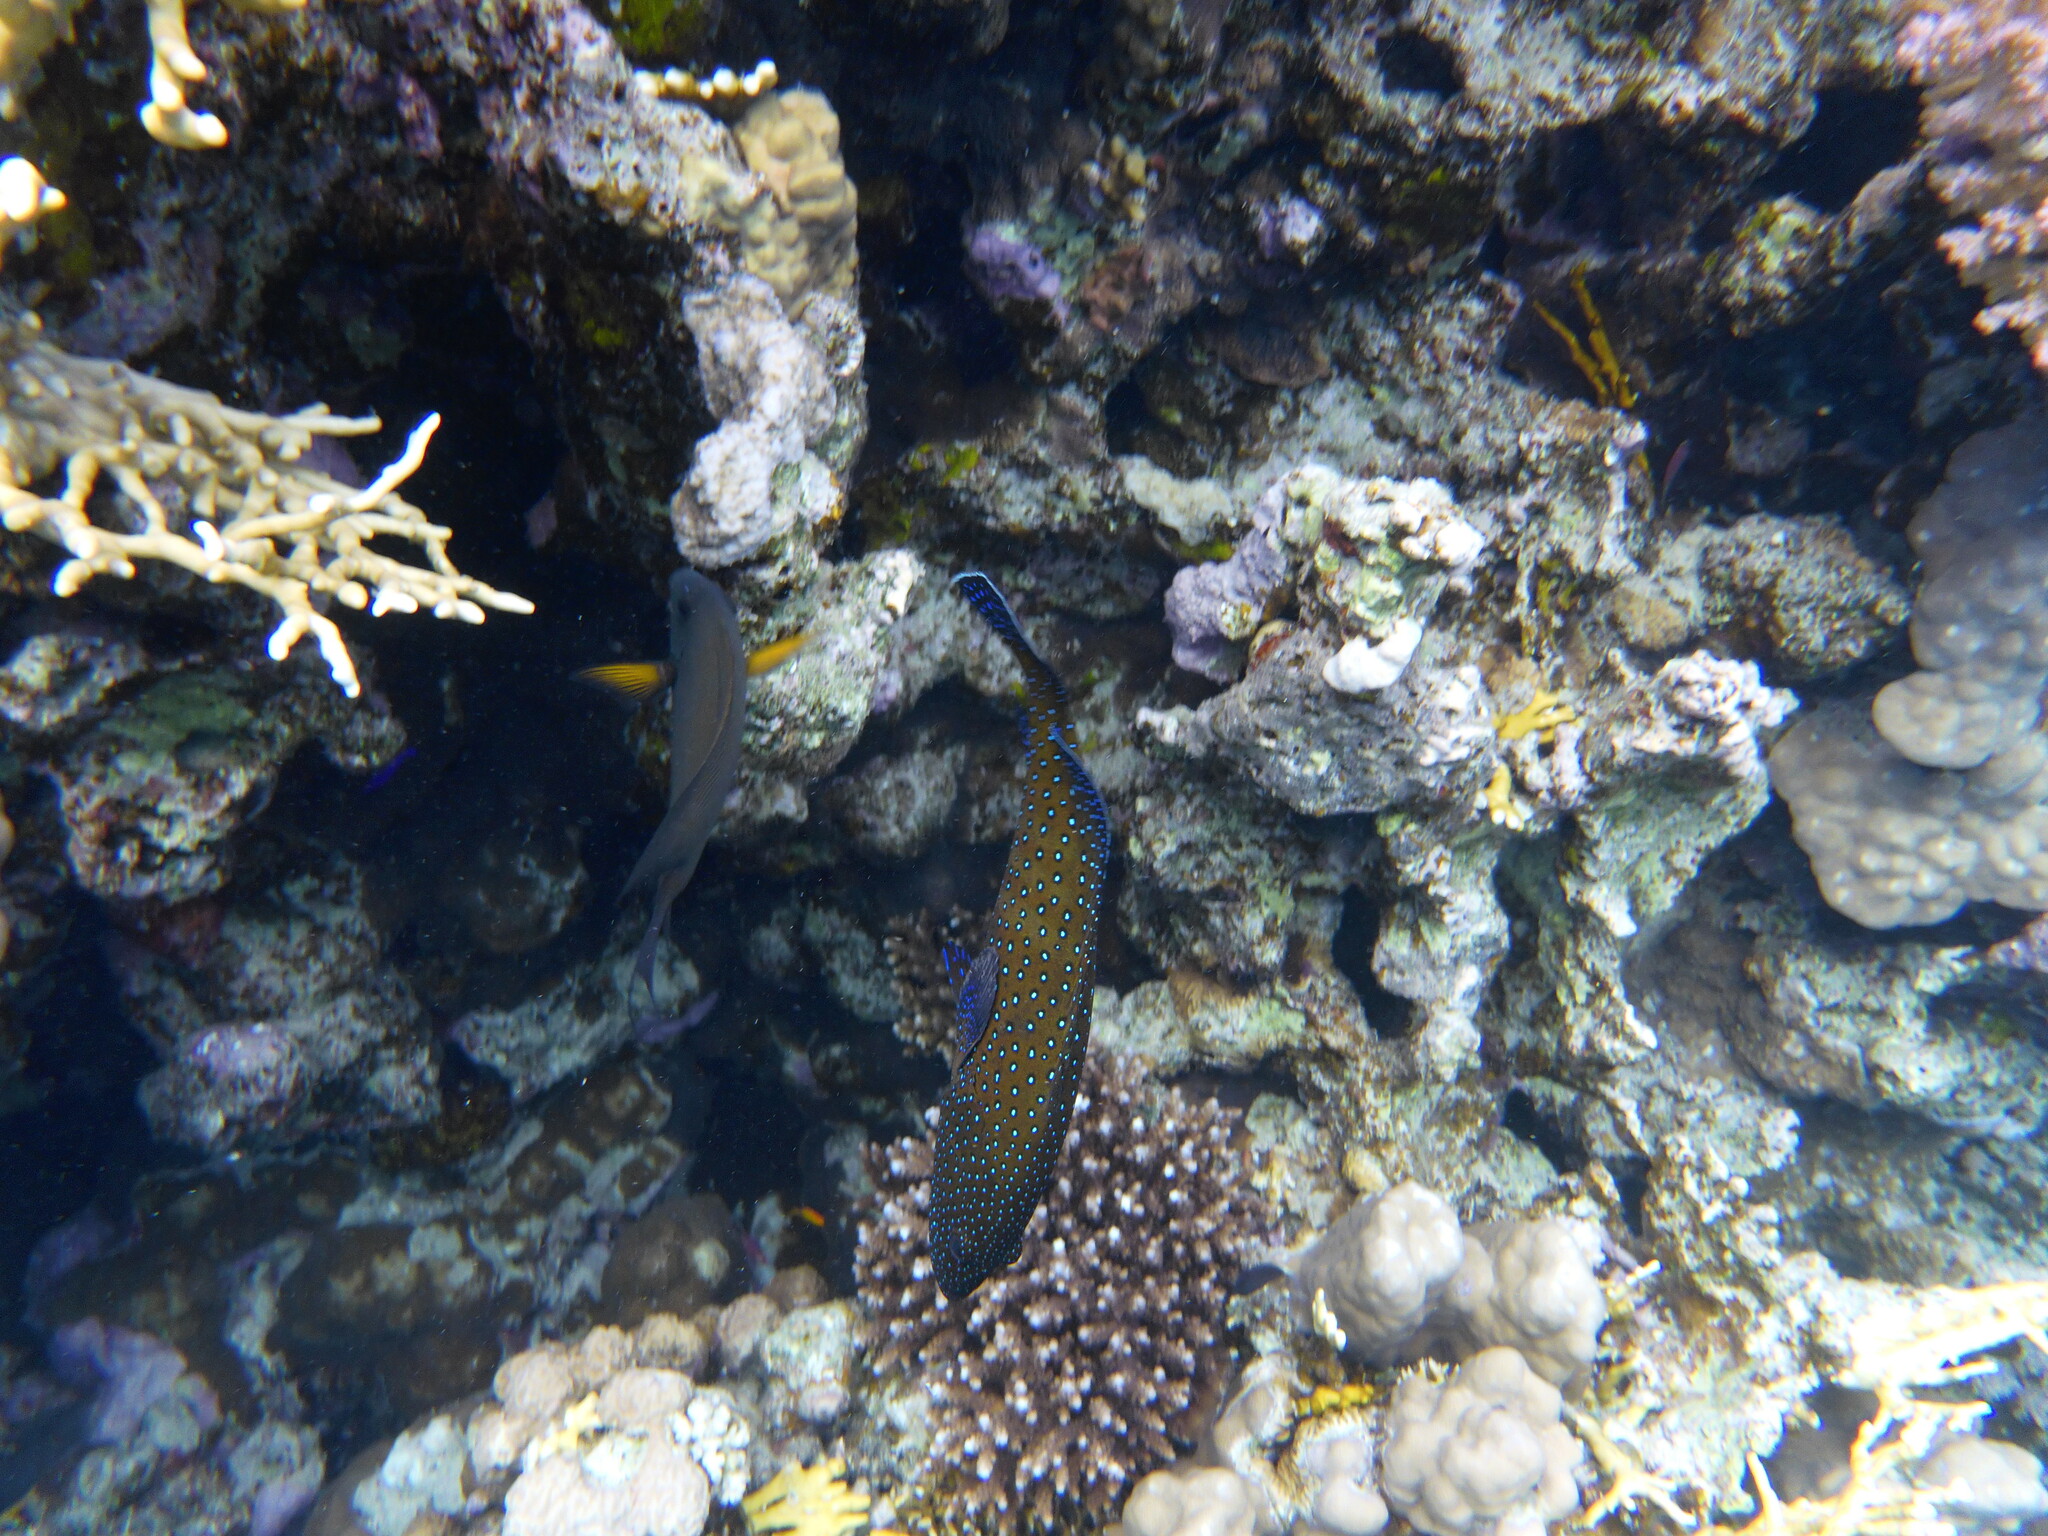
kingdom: Animalia
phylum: Chordata
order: Perciformes
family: Serranidae
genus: Cephalopholis
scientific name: Cephalopholis argus
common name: Peacock grouper
